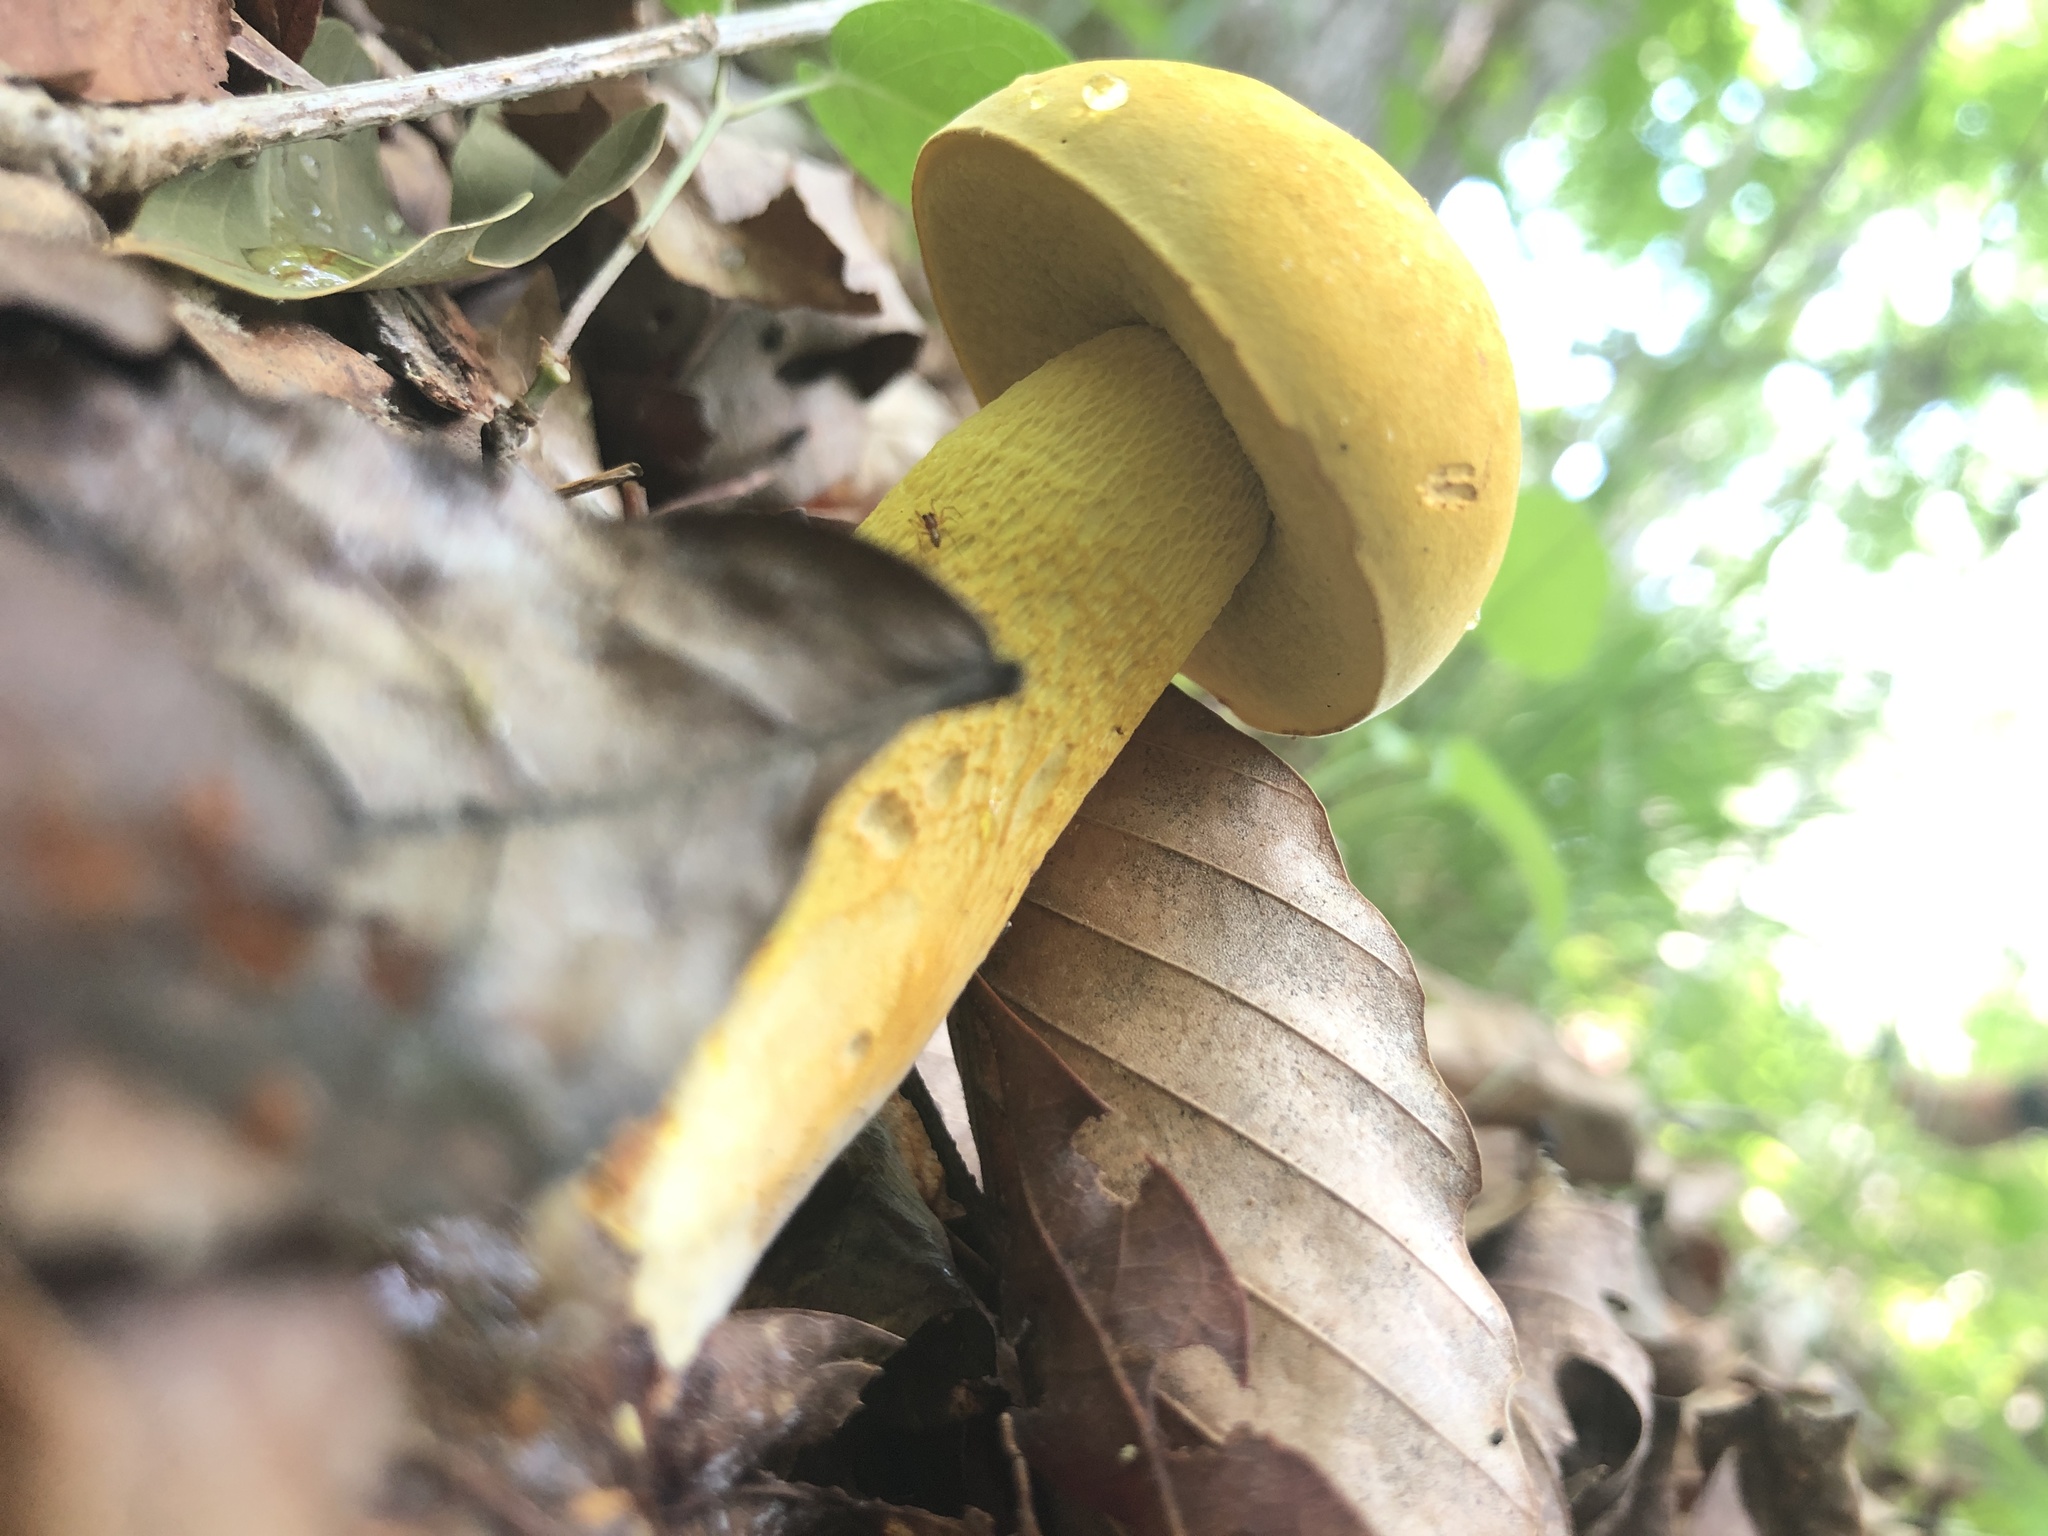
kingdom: Fungi
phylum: Basidiomycota
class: Agaricomycetes
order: Boletales
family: Boletaceae
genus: Retiboletus
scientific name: Retiboletus ornatipes
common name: Ornate-stalked bolete
